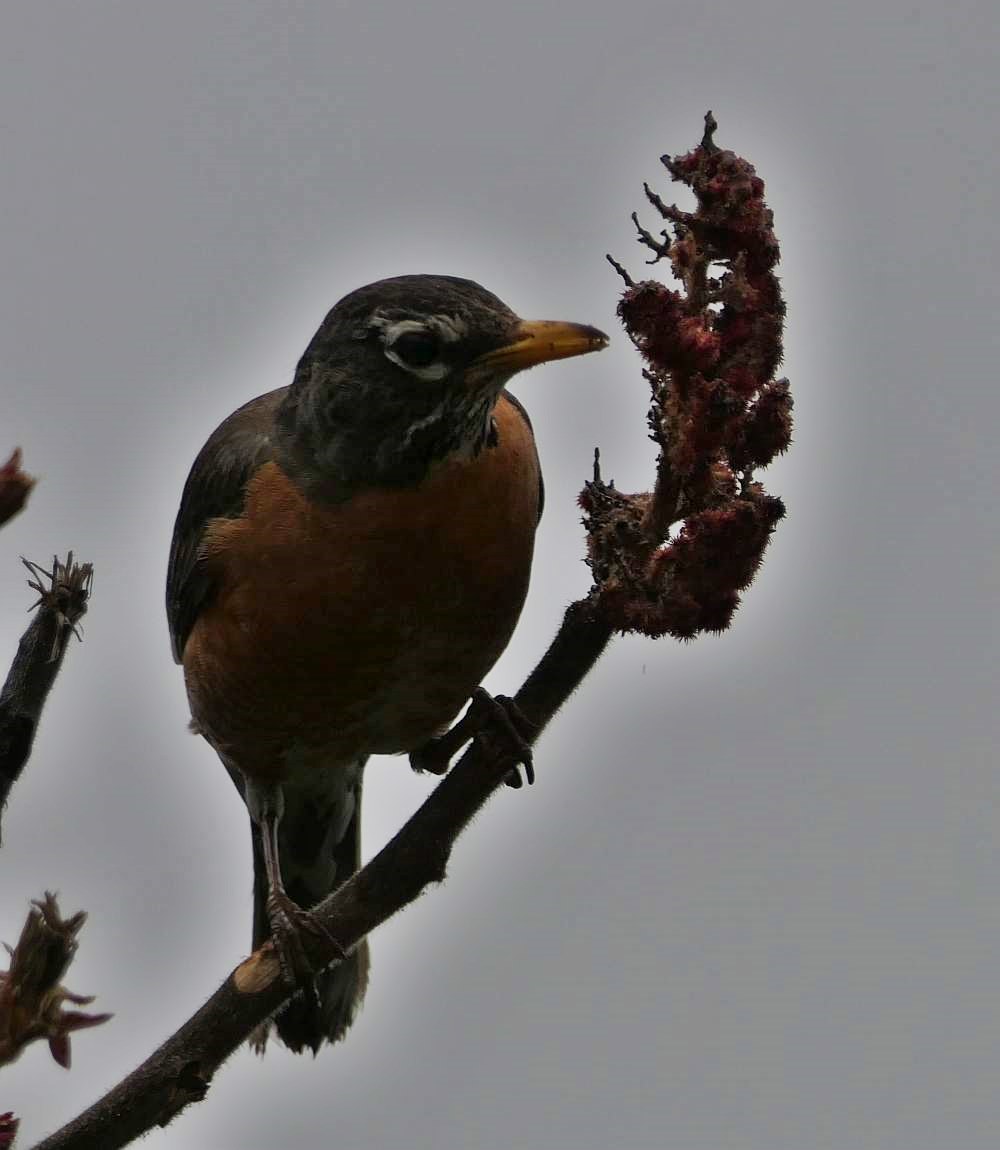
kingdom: Animalia
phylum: Chordata
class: Aves
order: Passeriformes
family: Turdidae
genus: Turdus
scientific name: Turdus migratorius
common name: American robin
